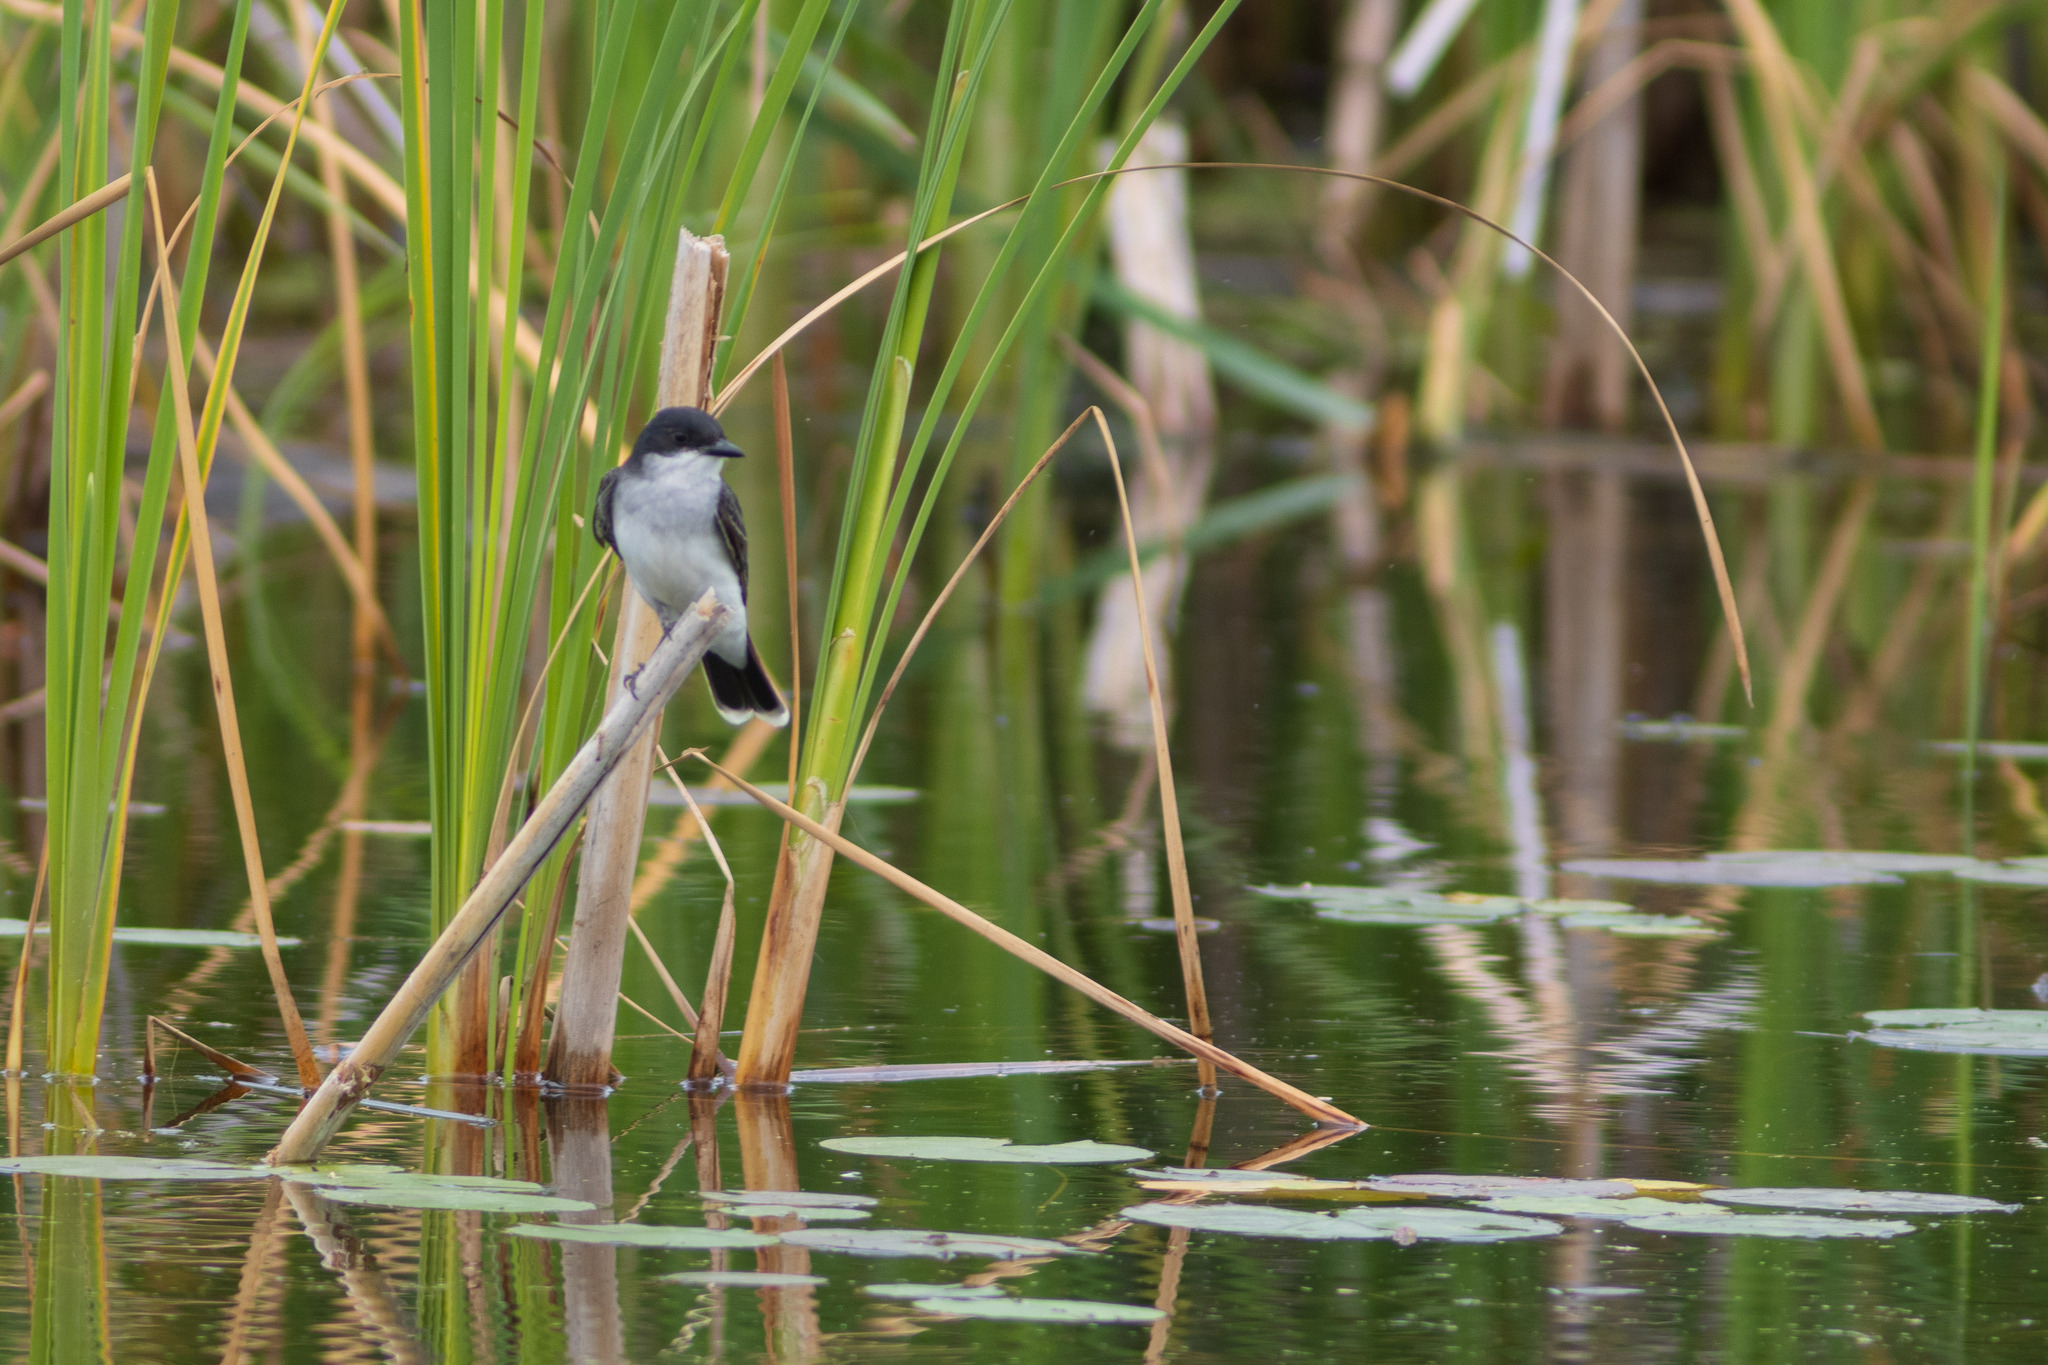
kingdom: Animalia
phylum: Chordata
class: Aves
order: Passeriformes
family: Tyrannidae
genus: Tyrannus
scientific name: Tyrannus tyrannus
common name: Eastern kingbird
